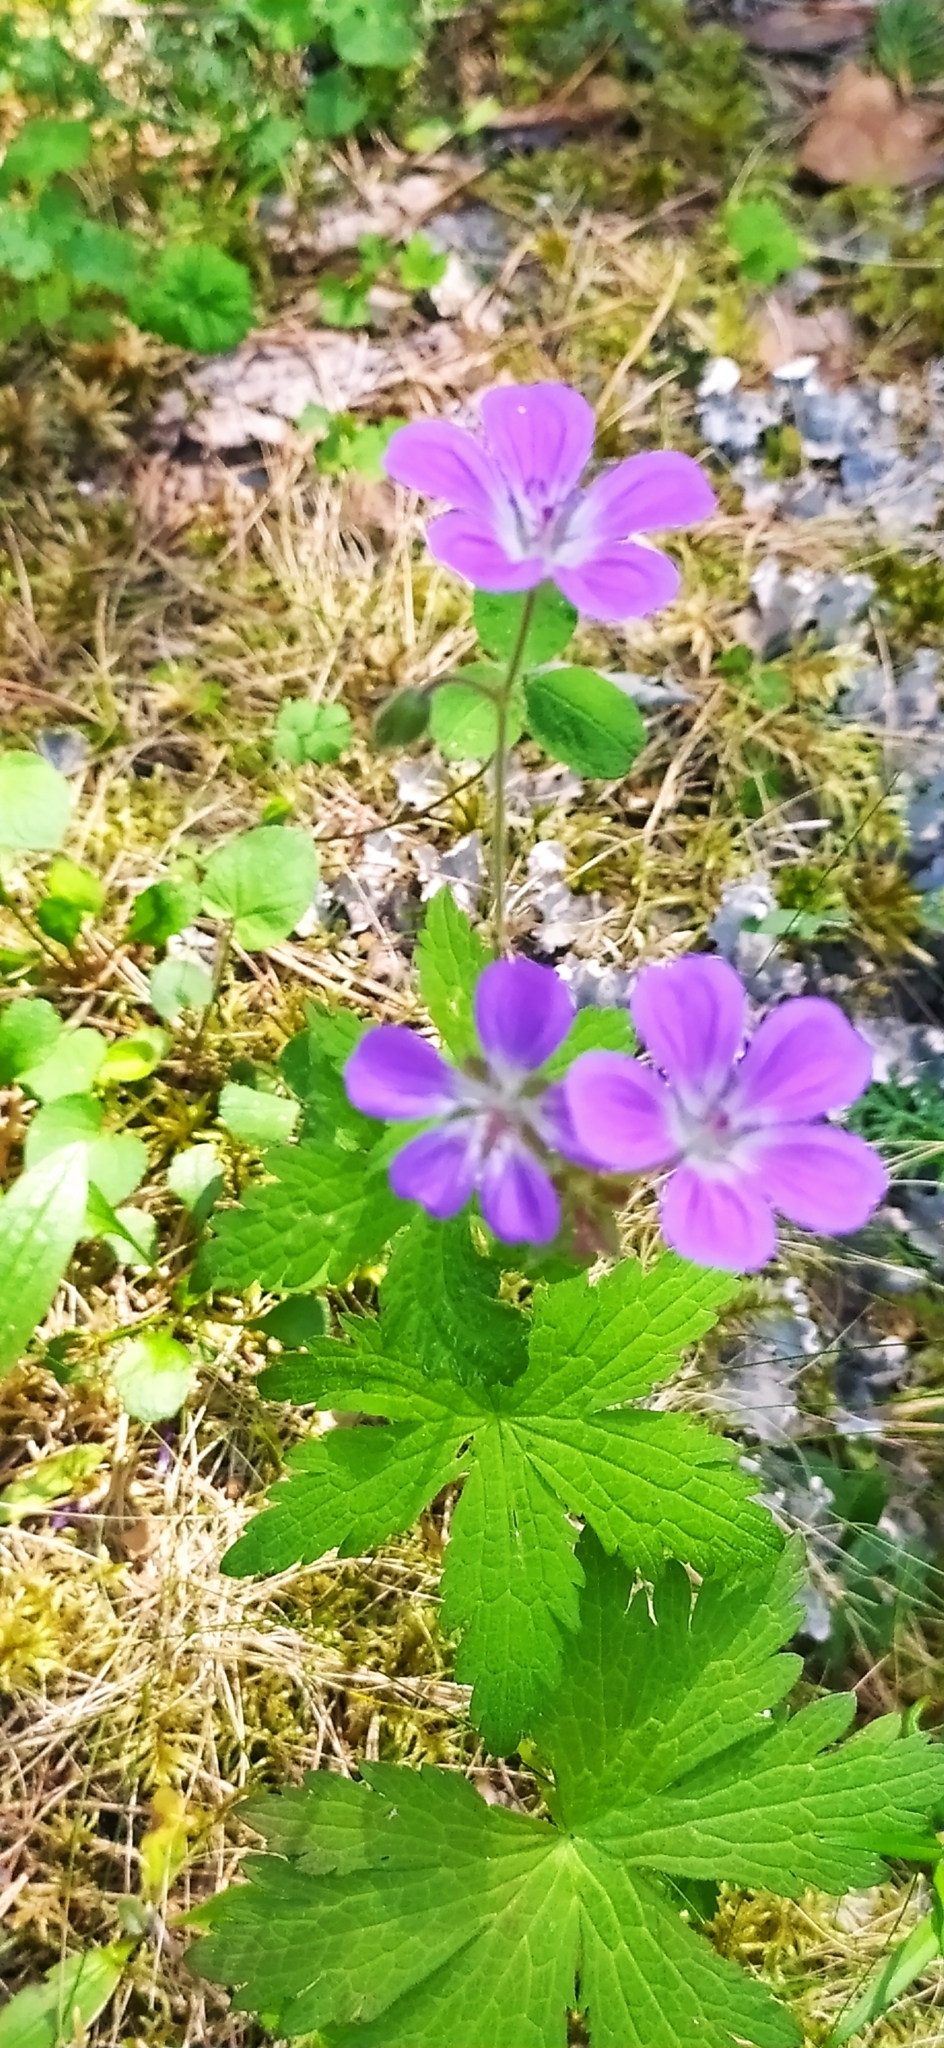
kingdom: Plantae
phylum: Tracheophyta
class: Magnoliopsida
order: Geraniales
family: Geraniaceae
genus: Geranium
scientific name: Geranium sylvaticum
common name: Wood crane's-bill
